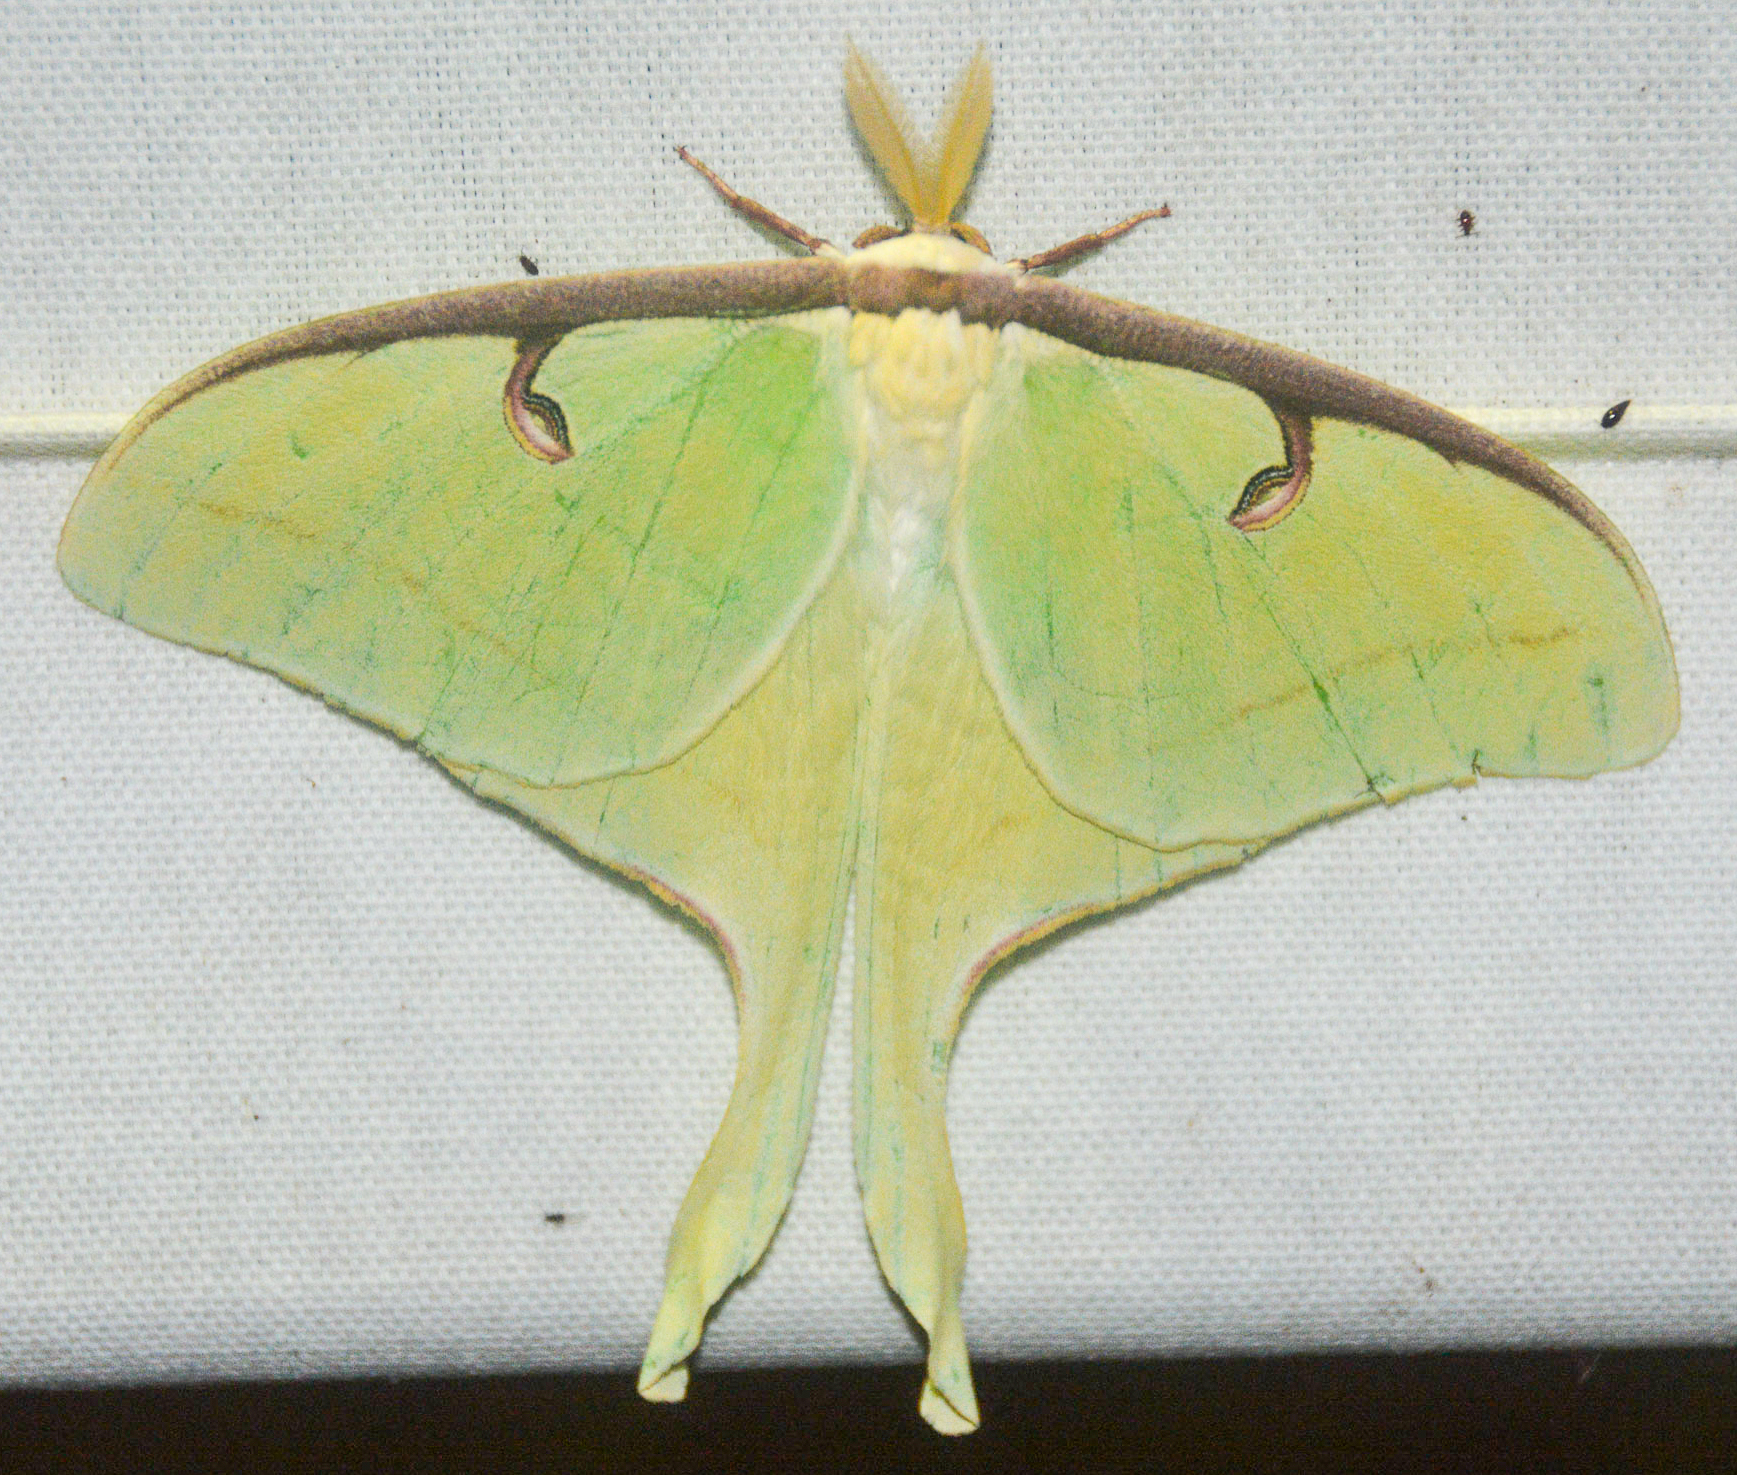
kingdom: Animalia
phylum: Arthropoda
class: Insecta
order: Lepidoptera
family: Saturniidae
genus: Actias
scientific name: Actias luna
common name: Luna moth
